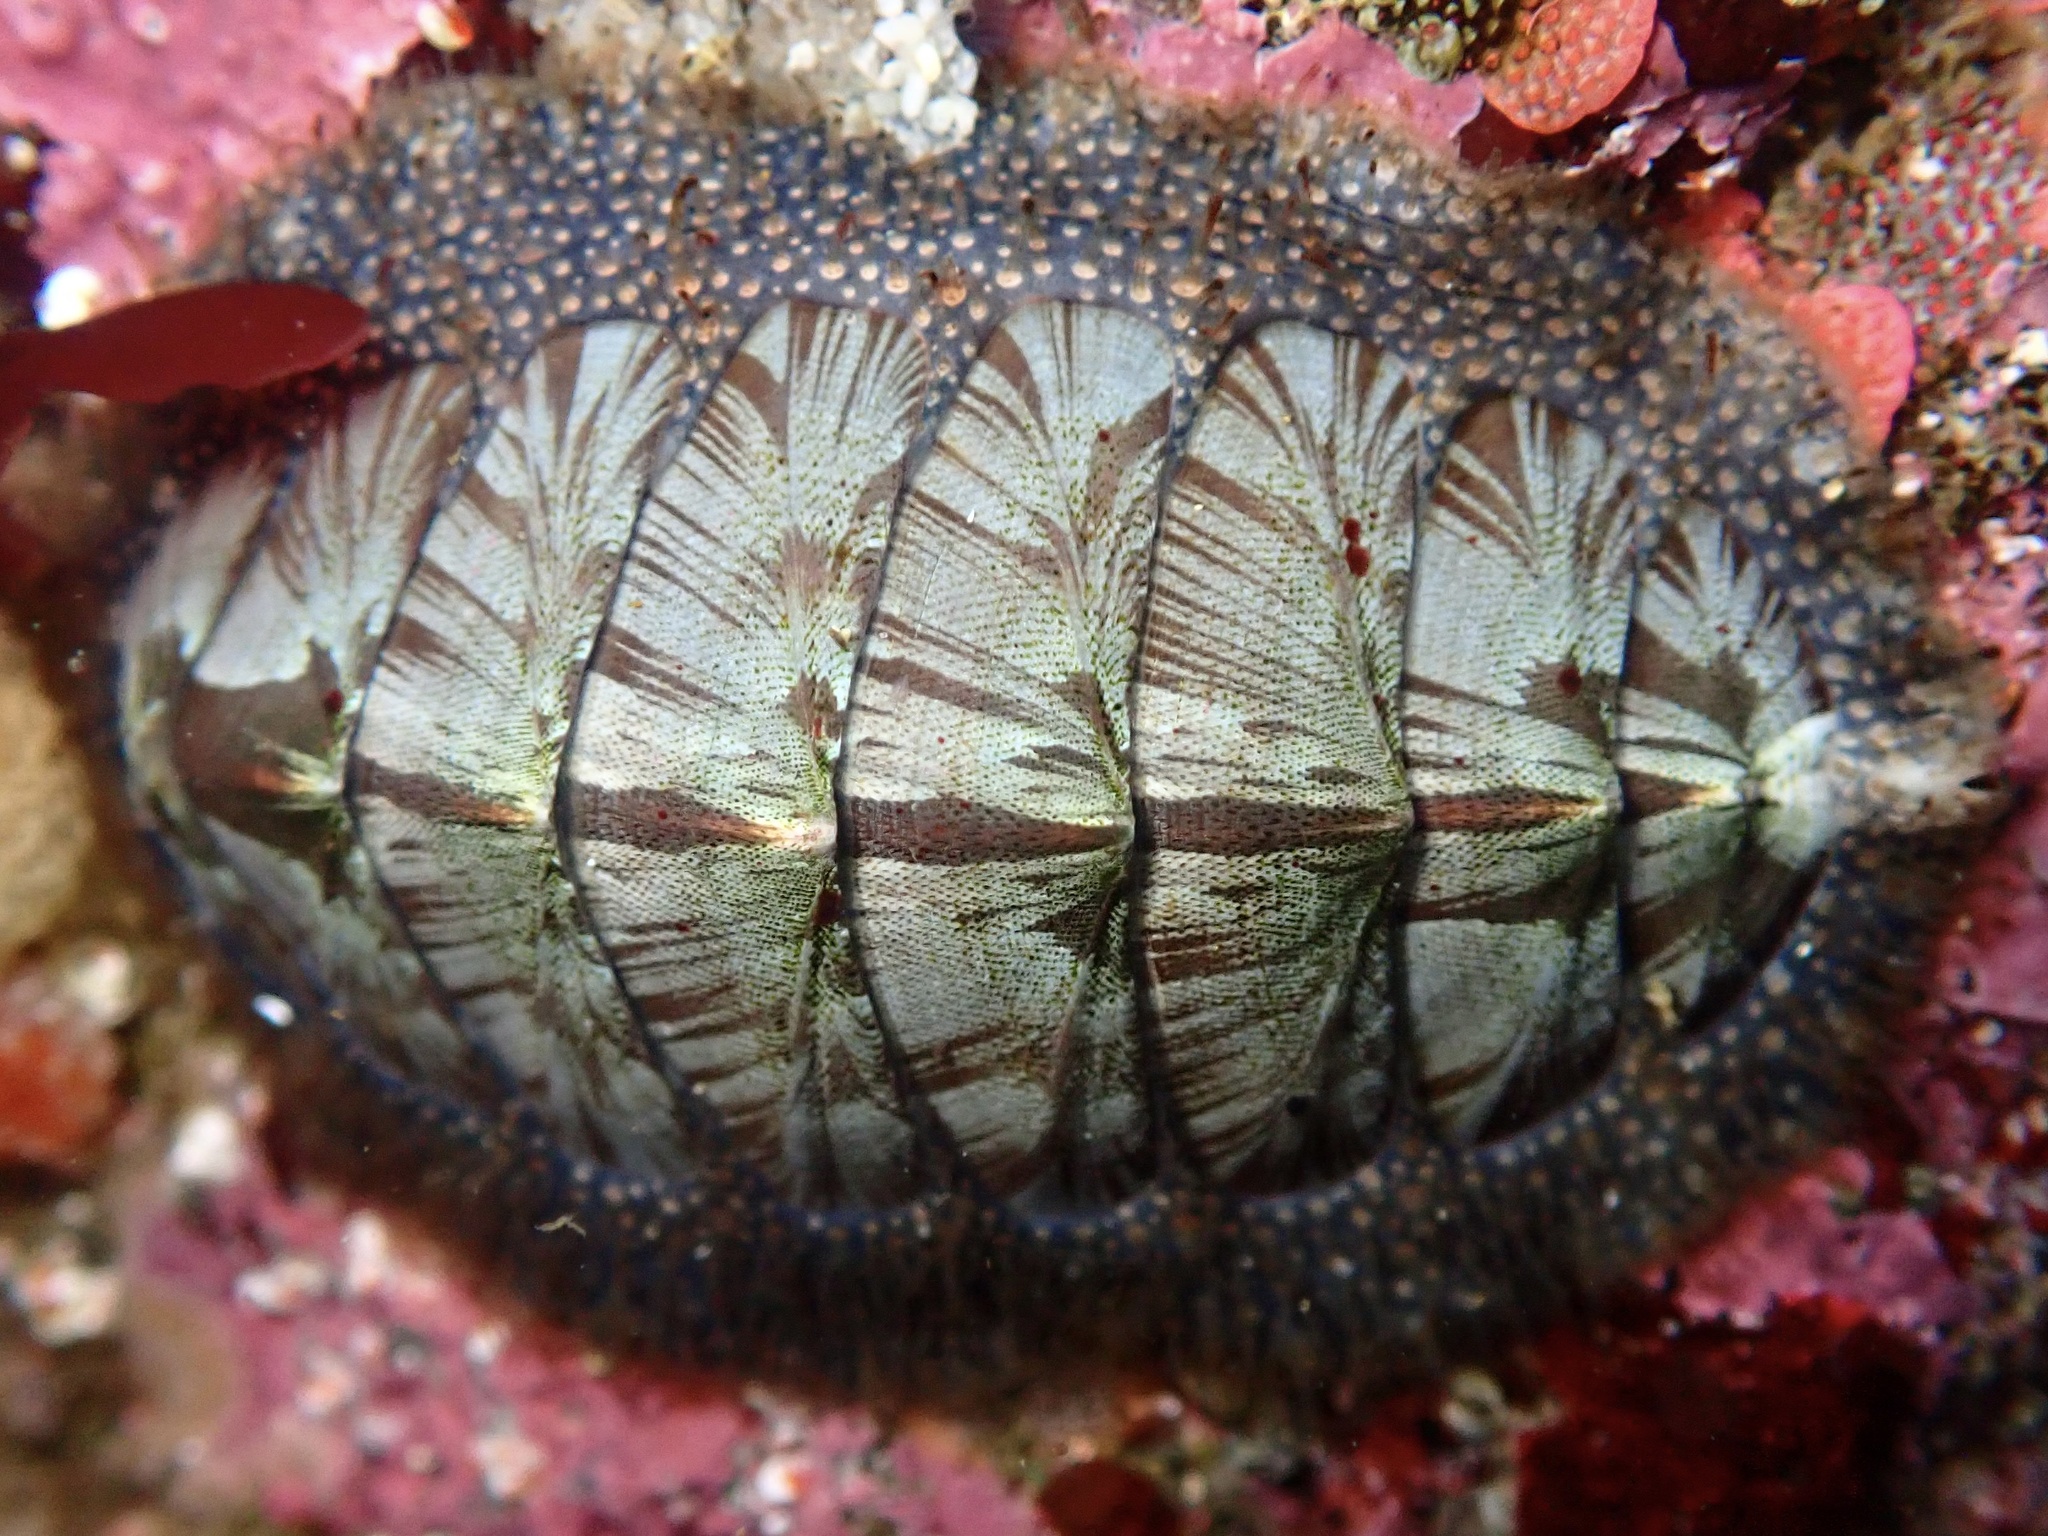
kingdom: Animalia
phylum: Mollusca
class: Polyplacophora
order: Chitonida
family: Mopaliidae
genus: Mopalia
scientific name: Mopalia lignosa
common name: Woody chiton
